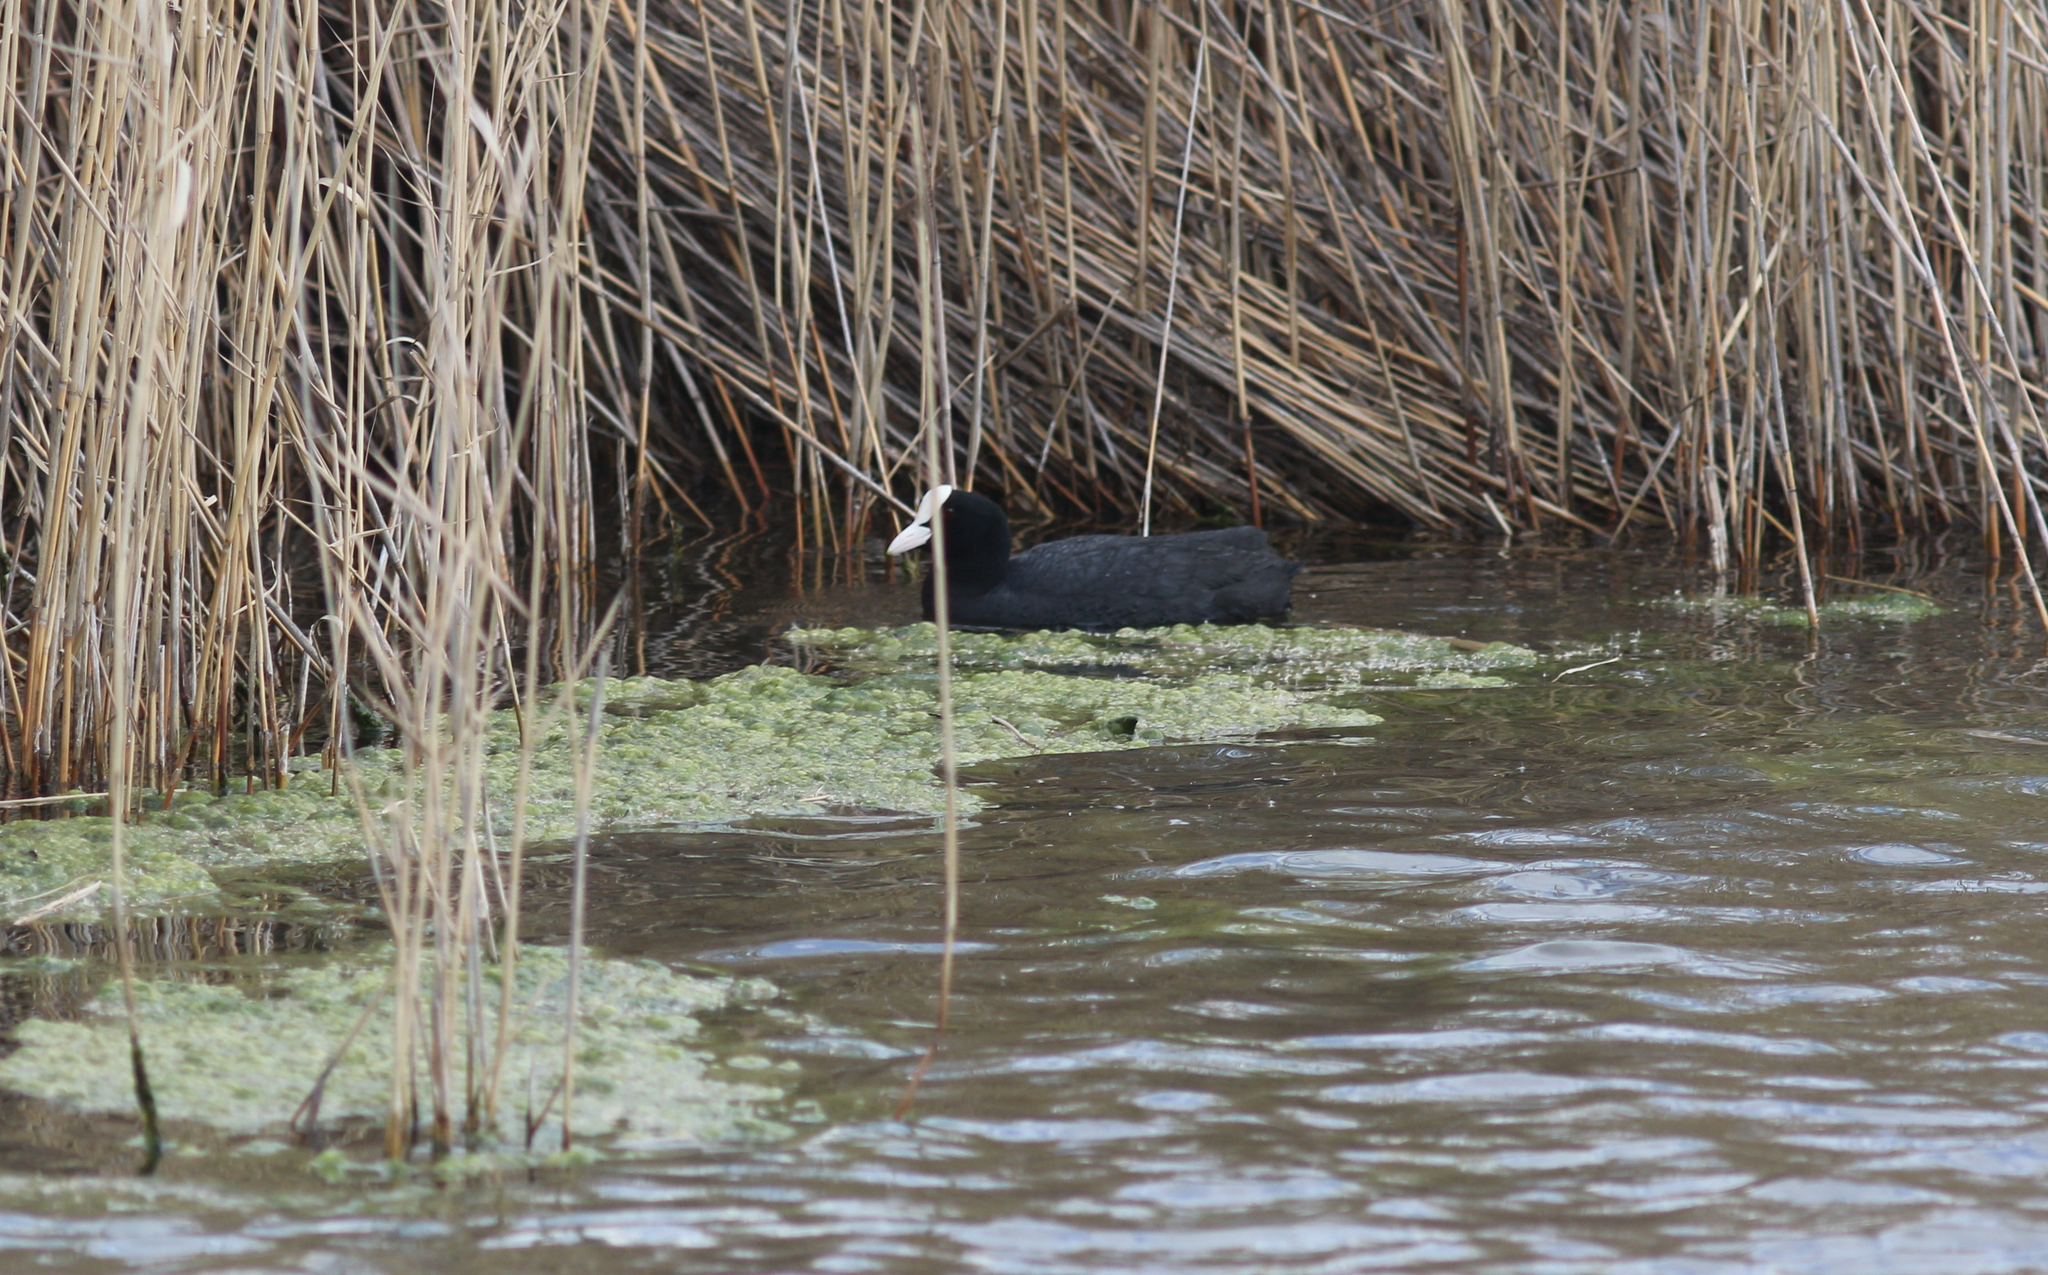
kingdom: Animalia
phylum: Chordata
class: Aves
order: Gruiformes
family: Rallidae
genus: Fulica
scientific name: Fulica atra
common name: Eurasian coot
